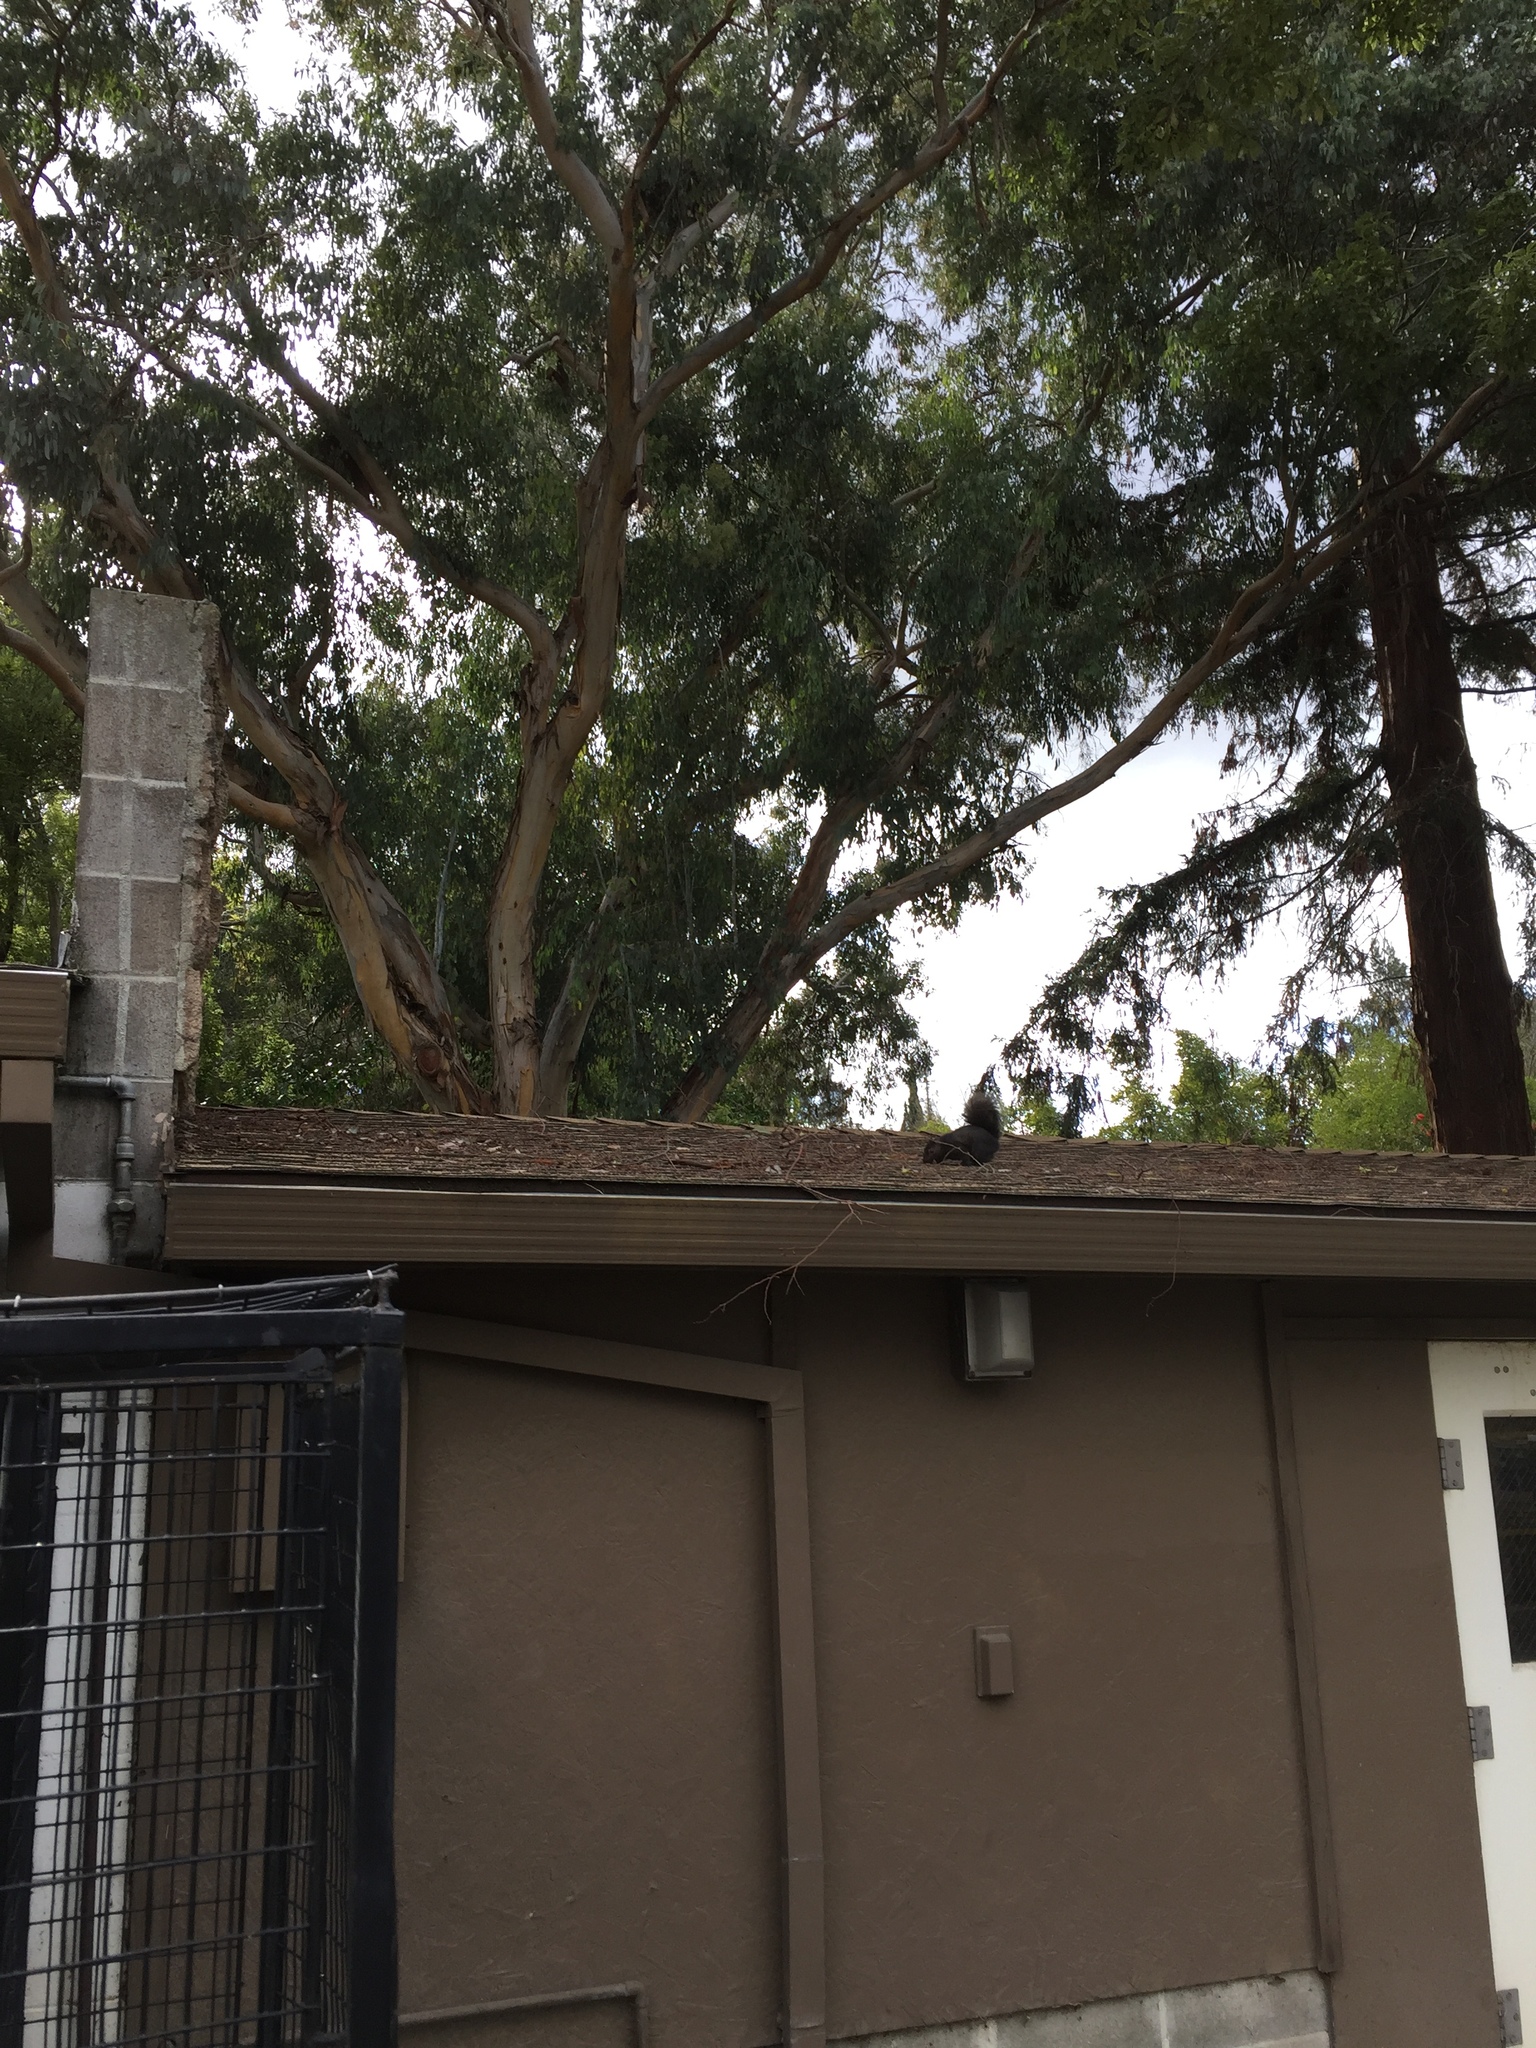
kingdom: Animalia
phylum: Chordata
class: Mammalia
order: Rodentia
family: Sciuridae
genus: Sciurus
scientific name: Sciurus carolinensis
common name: Eastern gray squirrel
